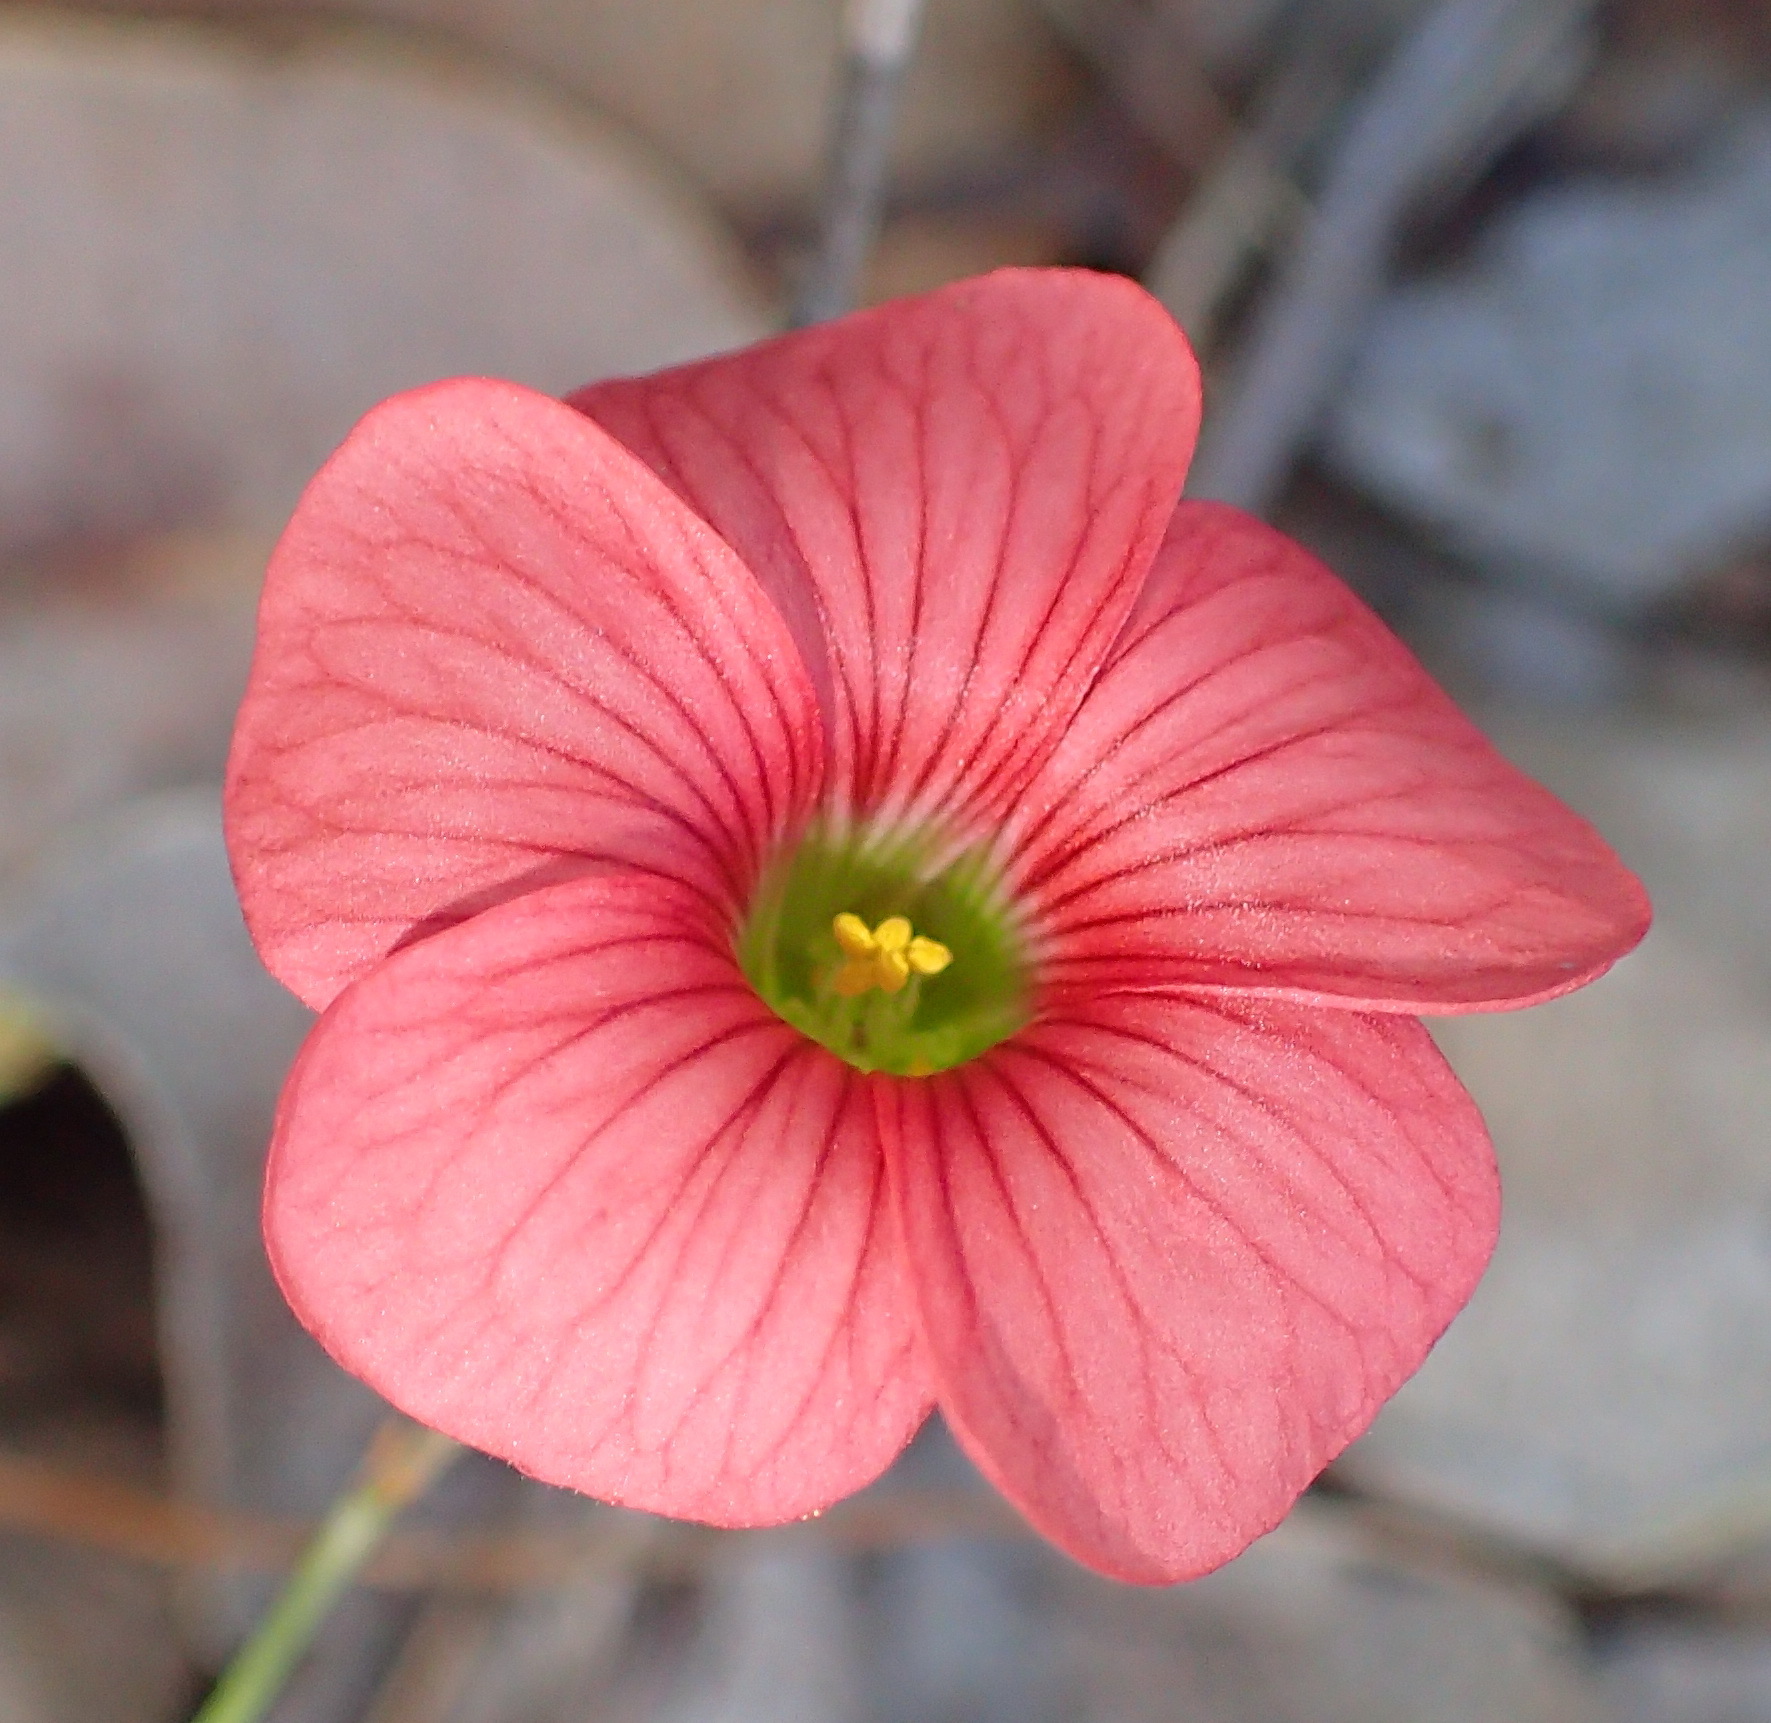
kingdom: Plantae
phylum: Tracheophyta
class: Magnoliopsida
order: Oxalidales
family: Oxalidaceae
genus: Oxalis
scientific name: Oxalis pendulifolia
